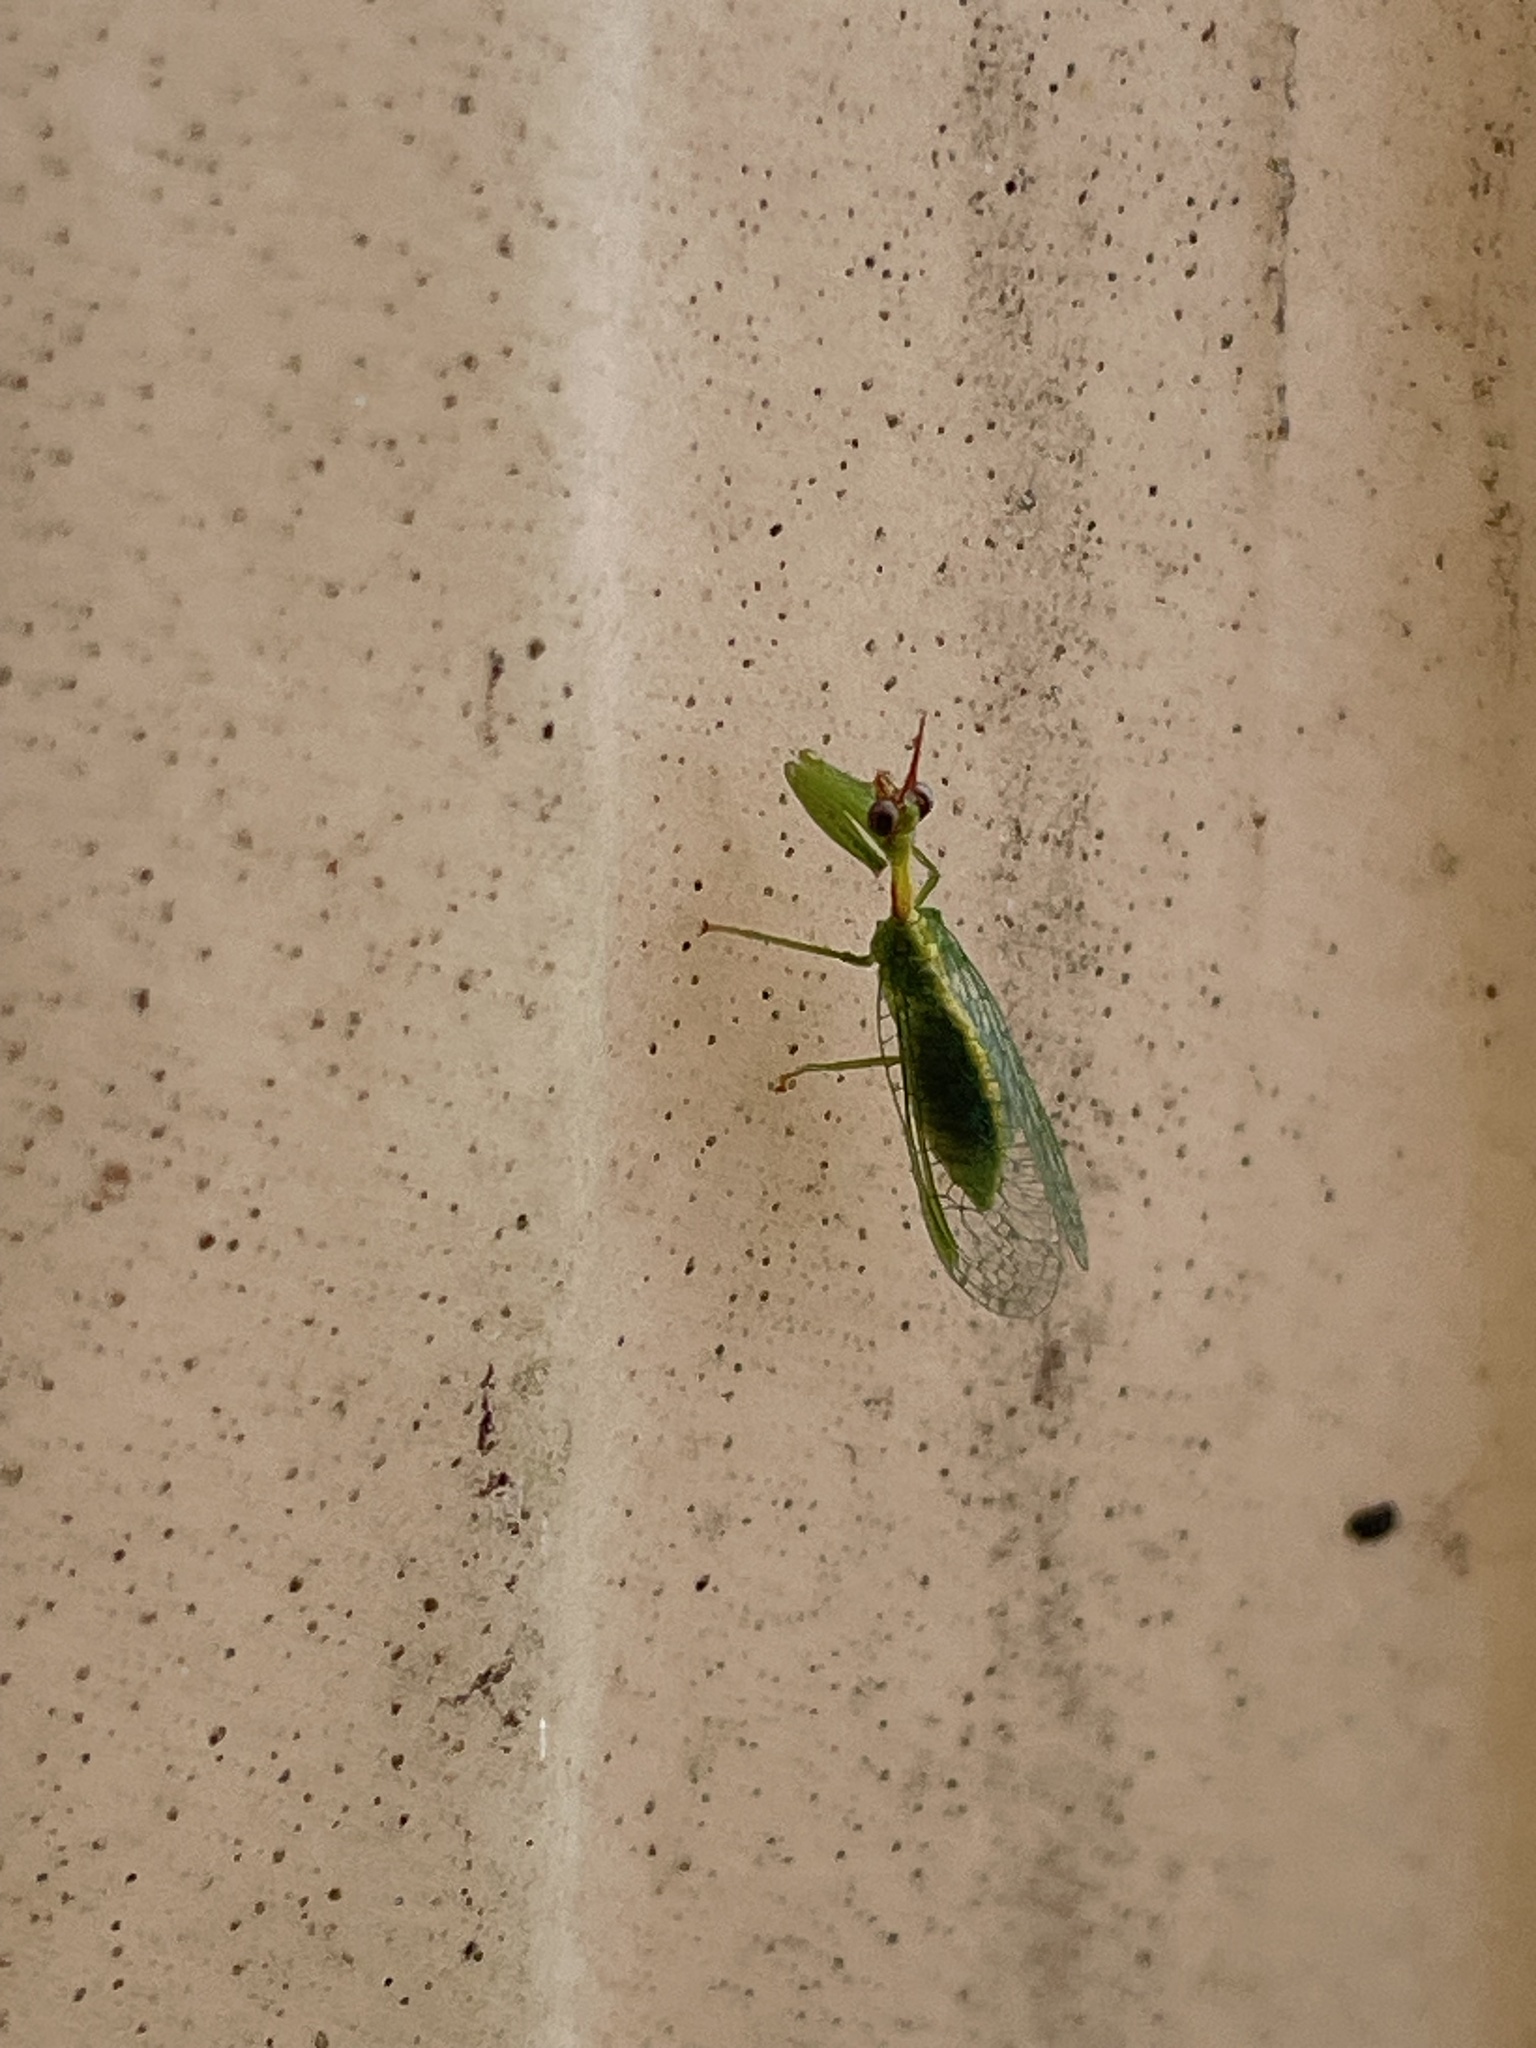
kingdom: Animalia
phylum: Arthropoda
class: Insecta
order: Neuroptera
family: Mantispidae
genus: Zeugomantispa
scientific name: Zeugomantispa minuta
